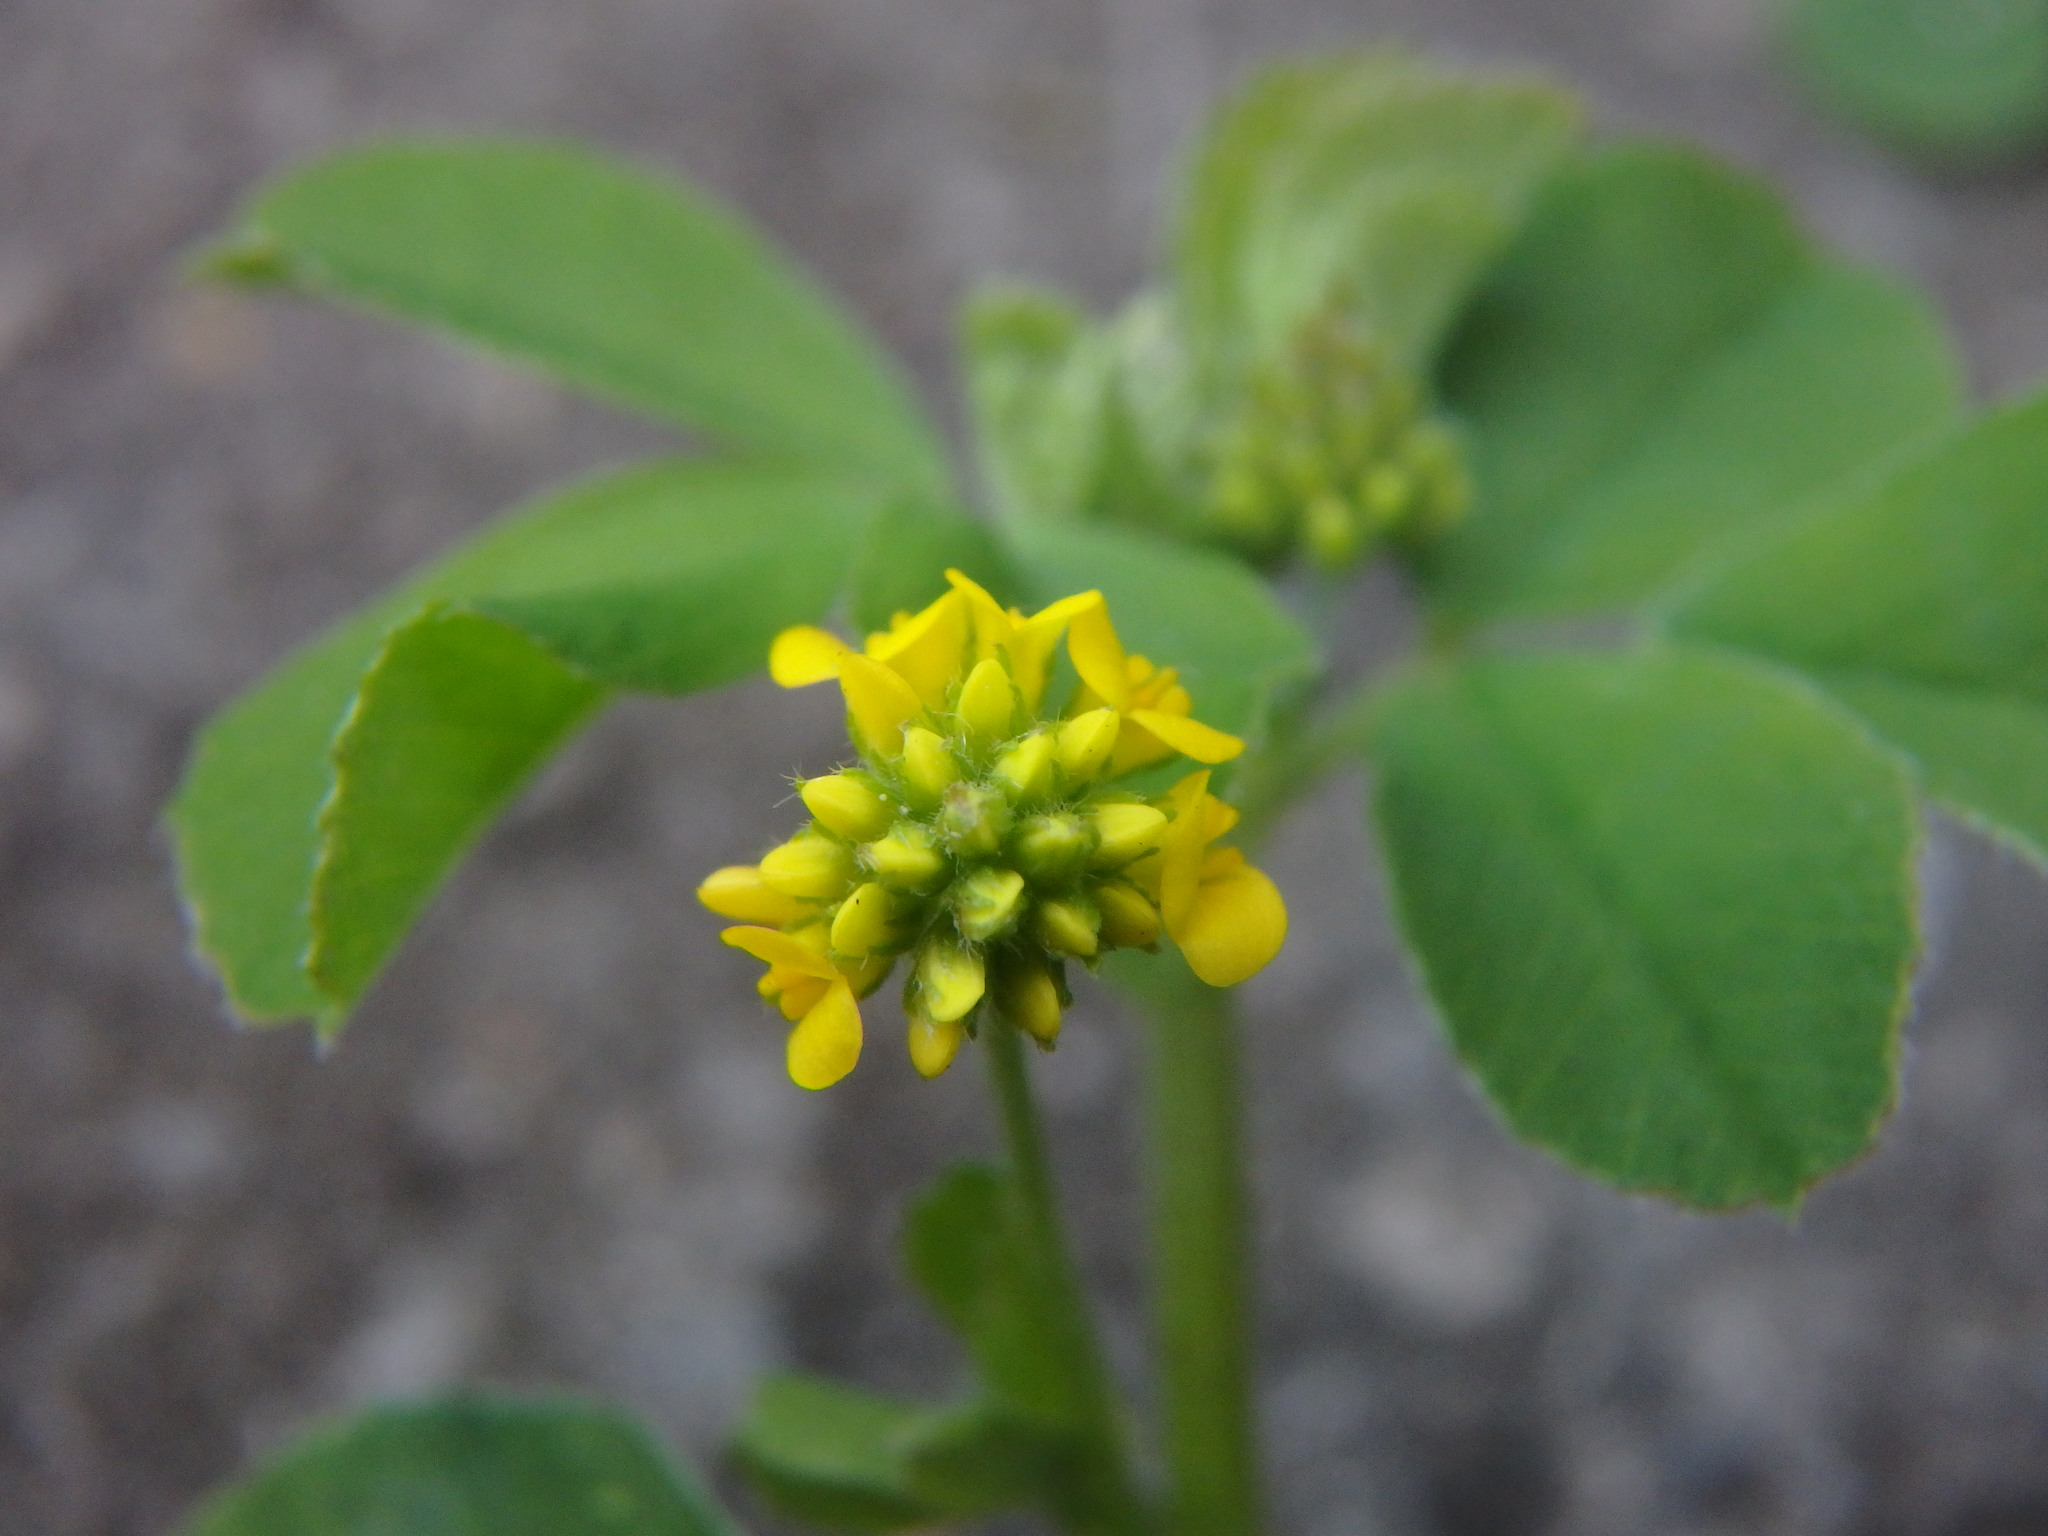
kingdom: Plantae
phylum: Tracheophyta
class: Magnoliopsida
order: Fabales
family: Fabaceae
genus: Medicago
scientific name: Medicago lupulina
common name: Black medick
